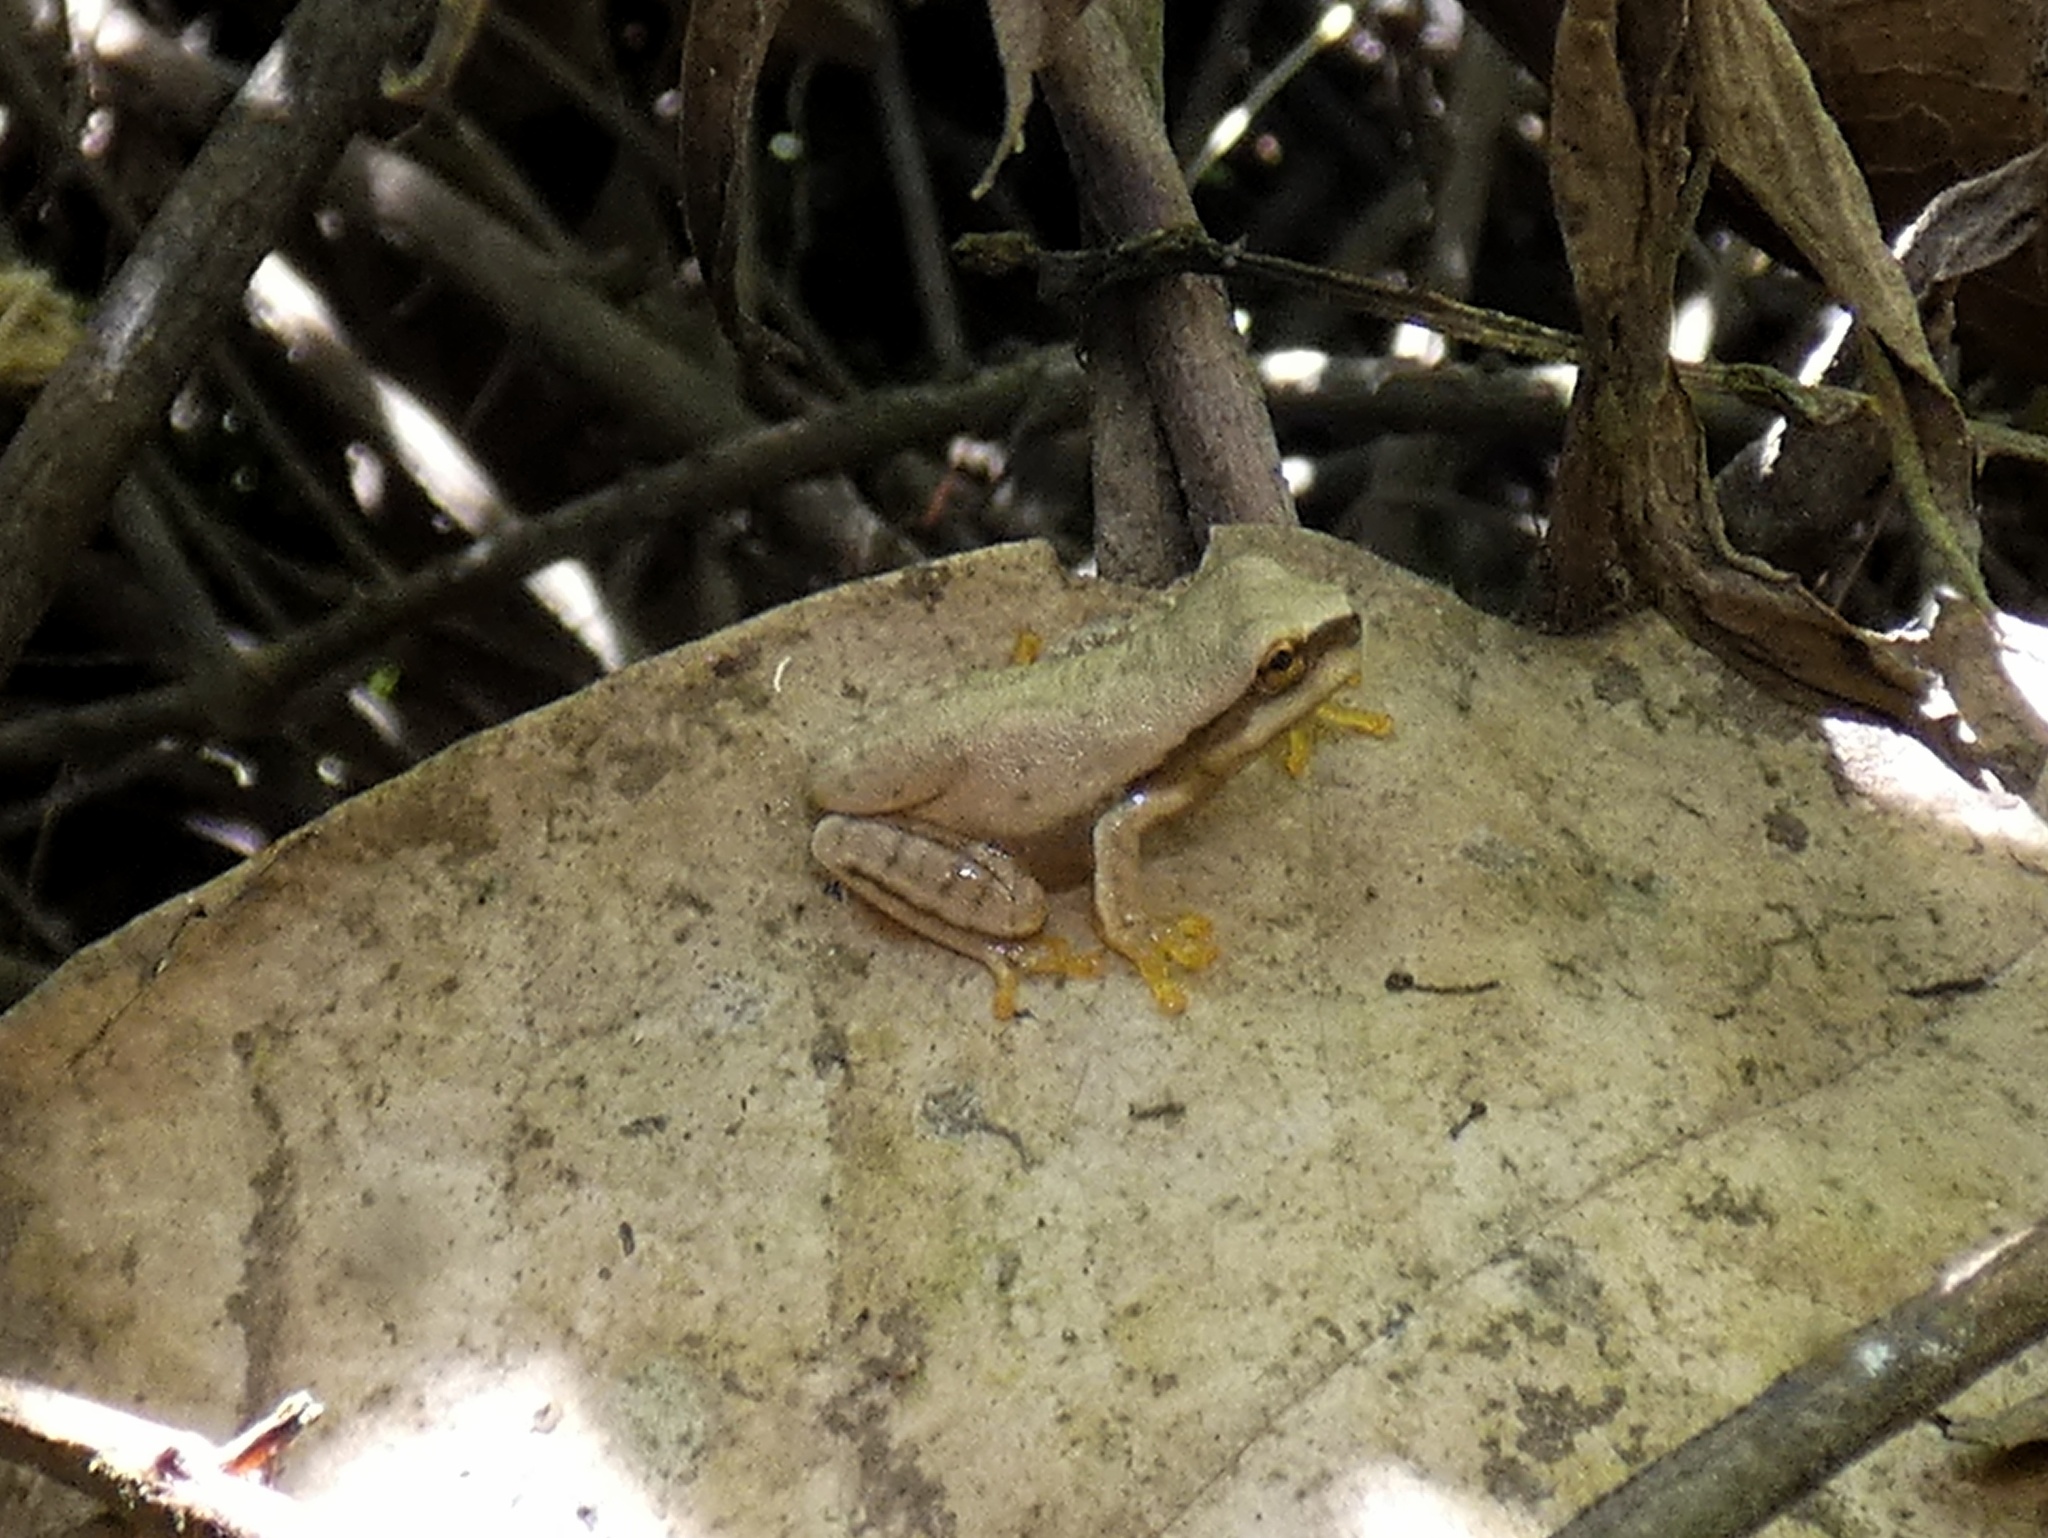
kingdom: Animalia
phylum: Chordata
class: Amphibia
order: Anura
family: Hylidae
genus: Smilisca
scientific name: Smilisca phaeota
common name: Central american smilisca
